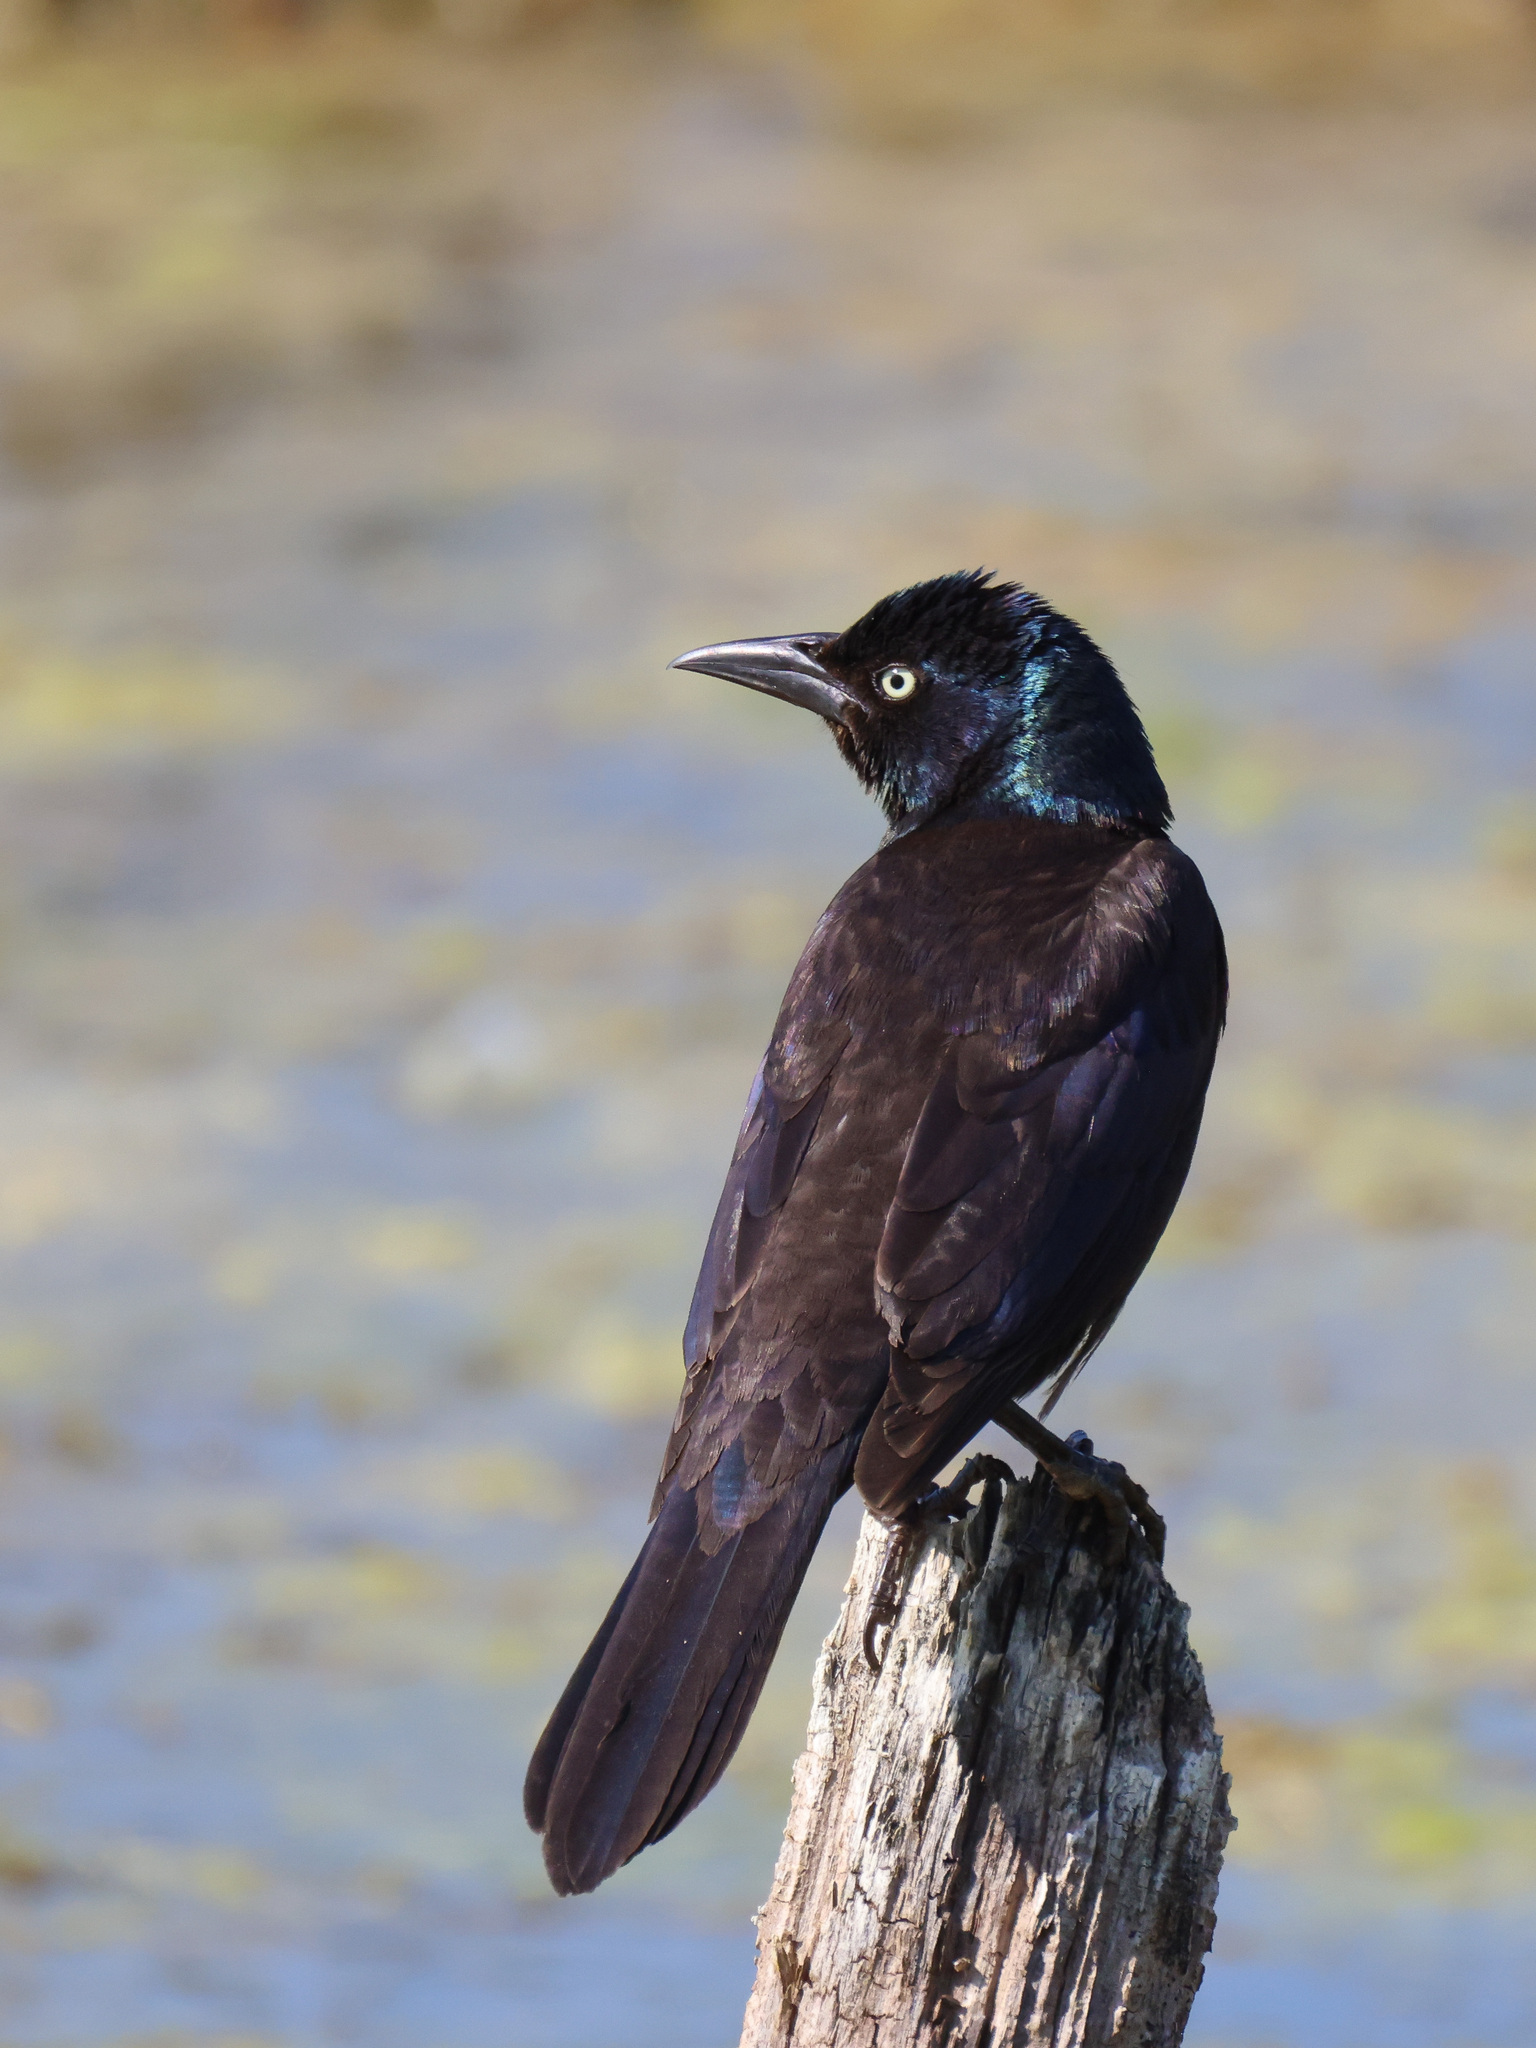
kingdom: Animalia
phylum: Chordata
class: Aves
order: Passeriformes
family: Icteridae
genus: Quiscalus
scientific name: Quiscalus quiscula
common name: Common grackle
